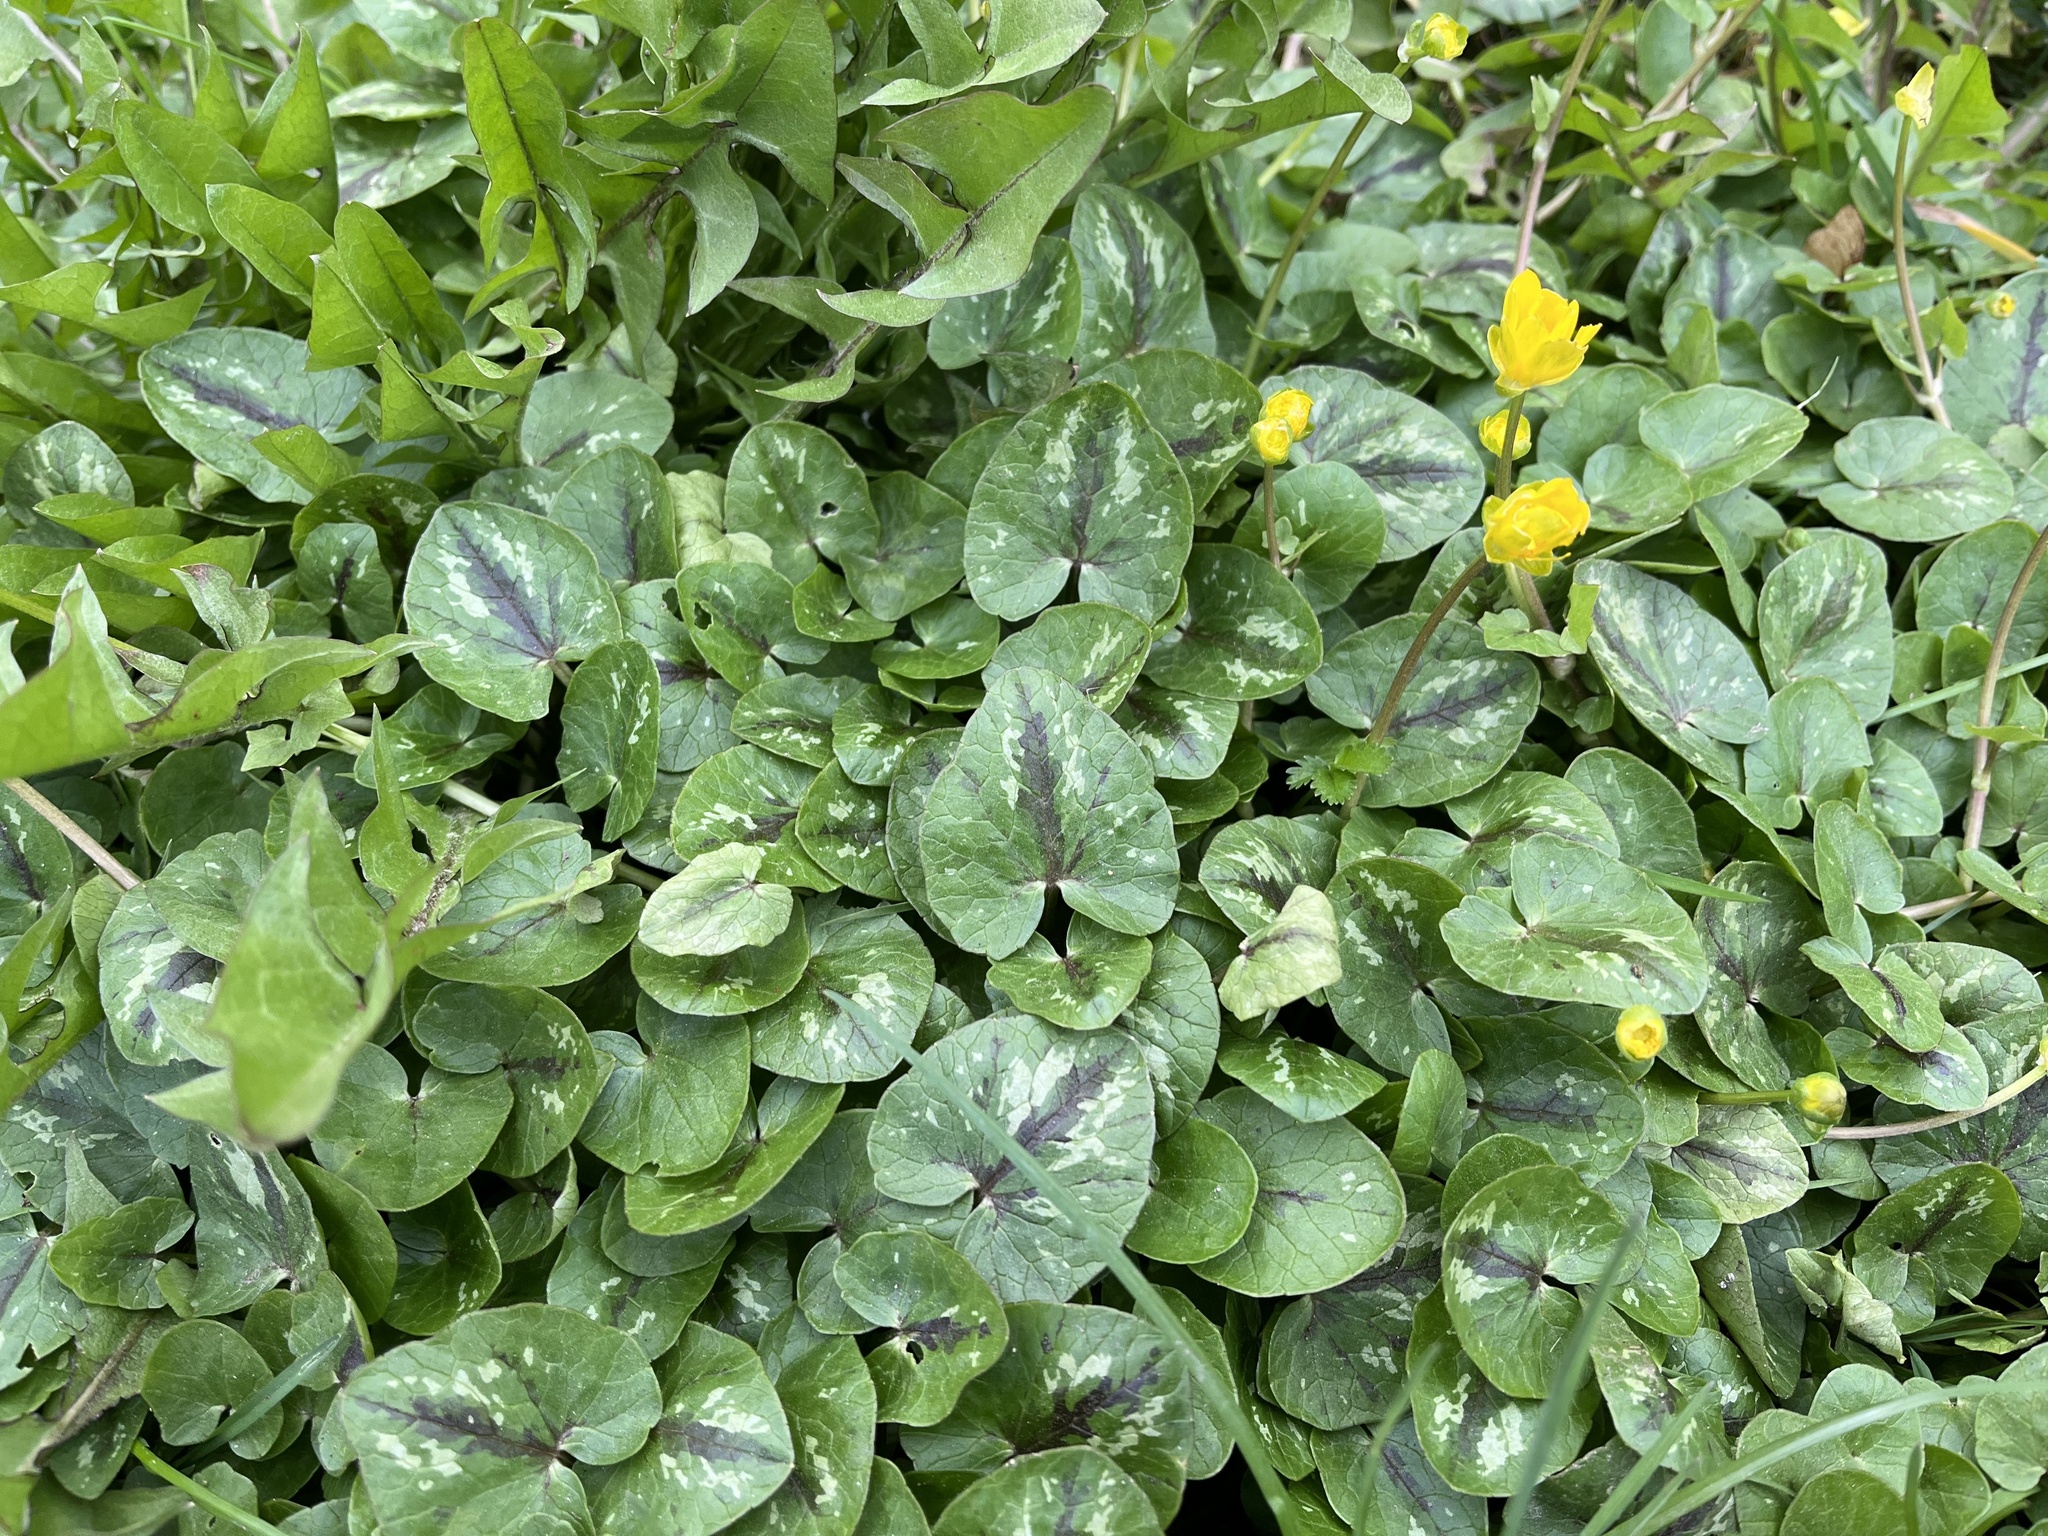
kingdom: Plantae
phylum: Tracheophyta
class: Magnoliopsida
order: Ranunculales
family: Ranunculaceae
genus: Ficaria
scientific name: Ficaria verna
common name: Lesser celandine
